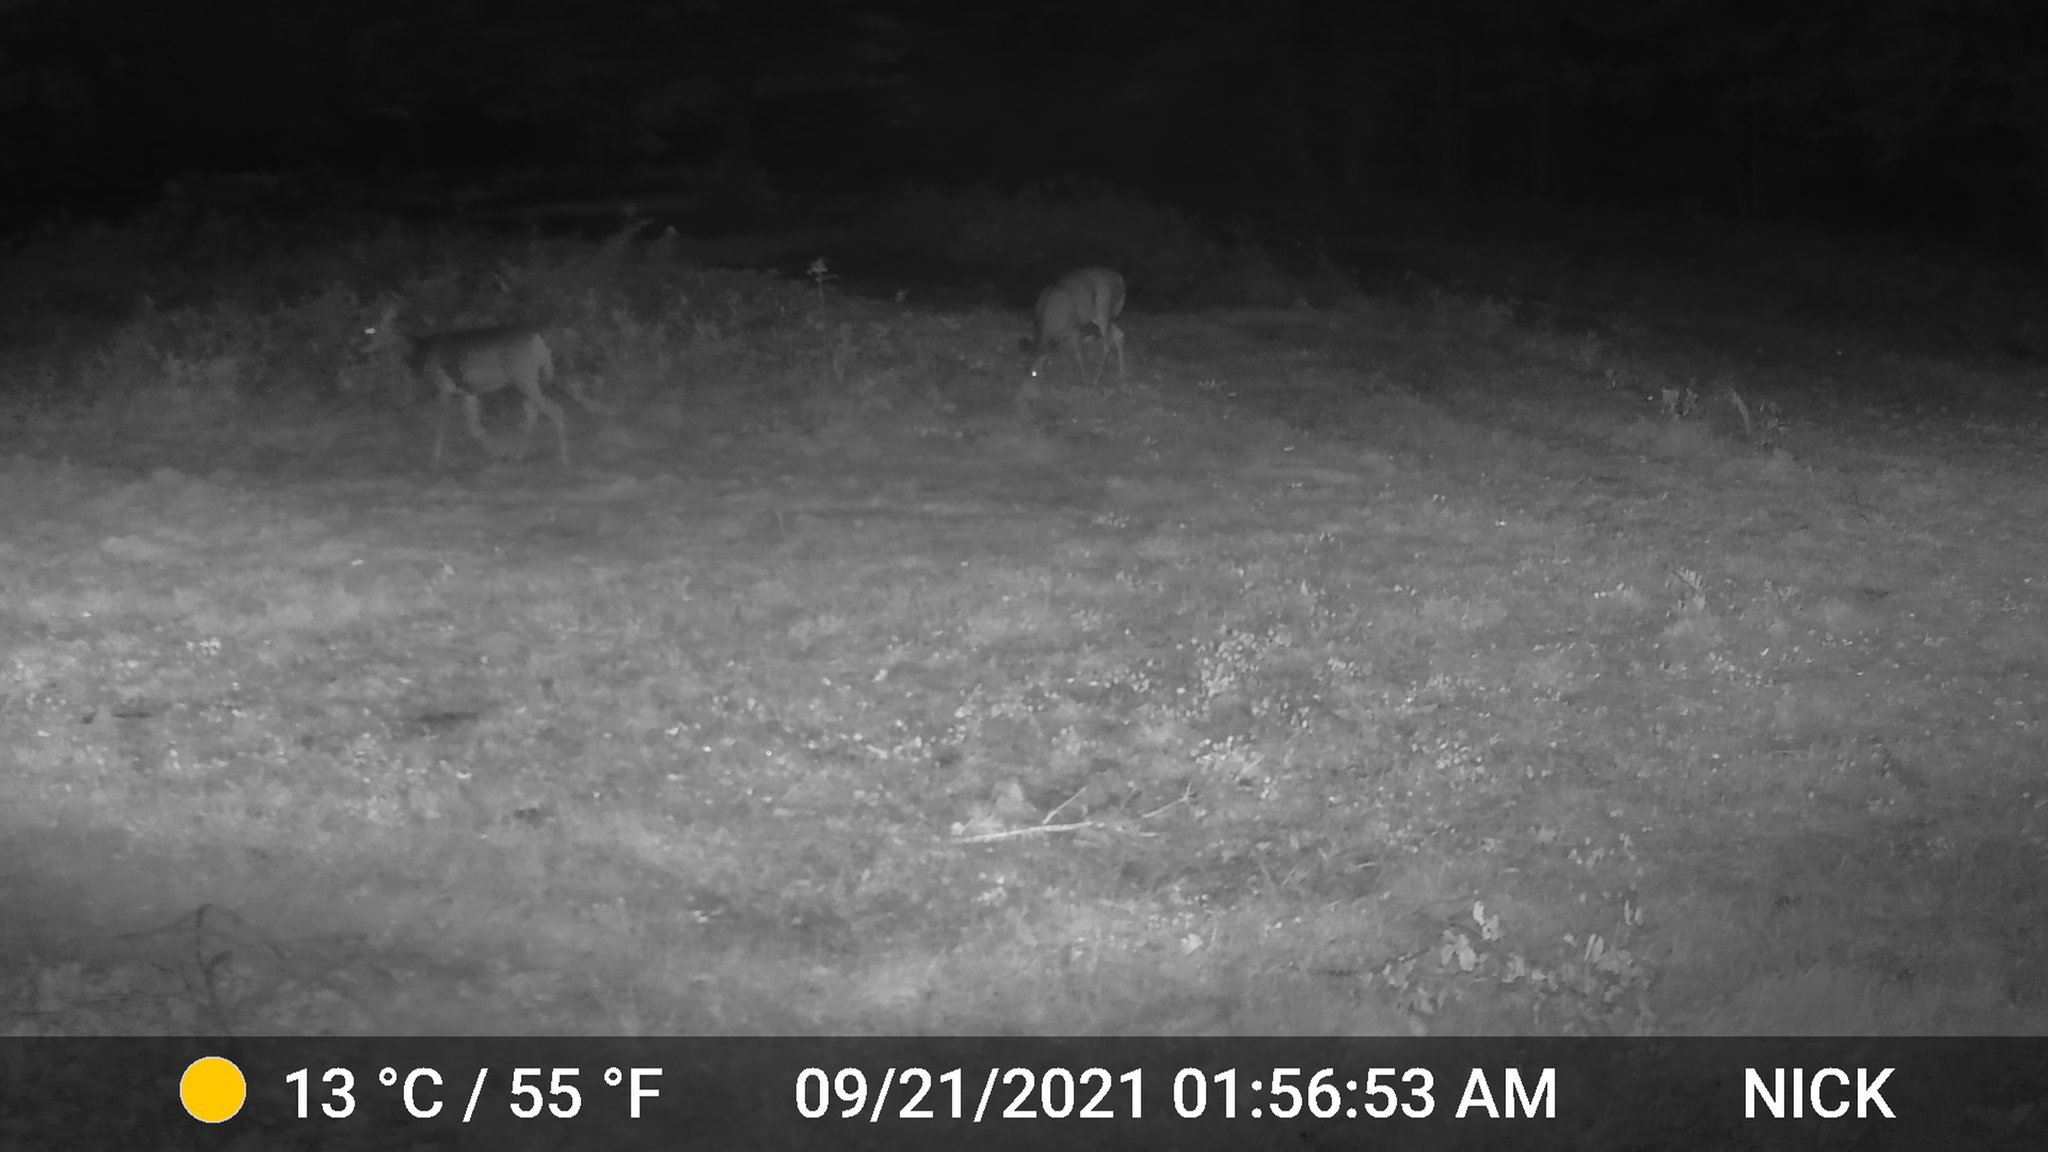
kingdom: Animalia
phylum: Chordata
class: Mammalia
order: Artiodactyla
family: Cervidae
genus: Odocoileus
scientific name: Odocoileus virginianus
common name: White-tailed deer
